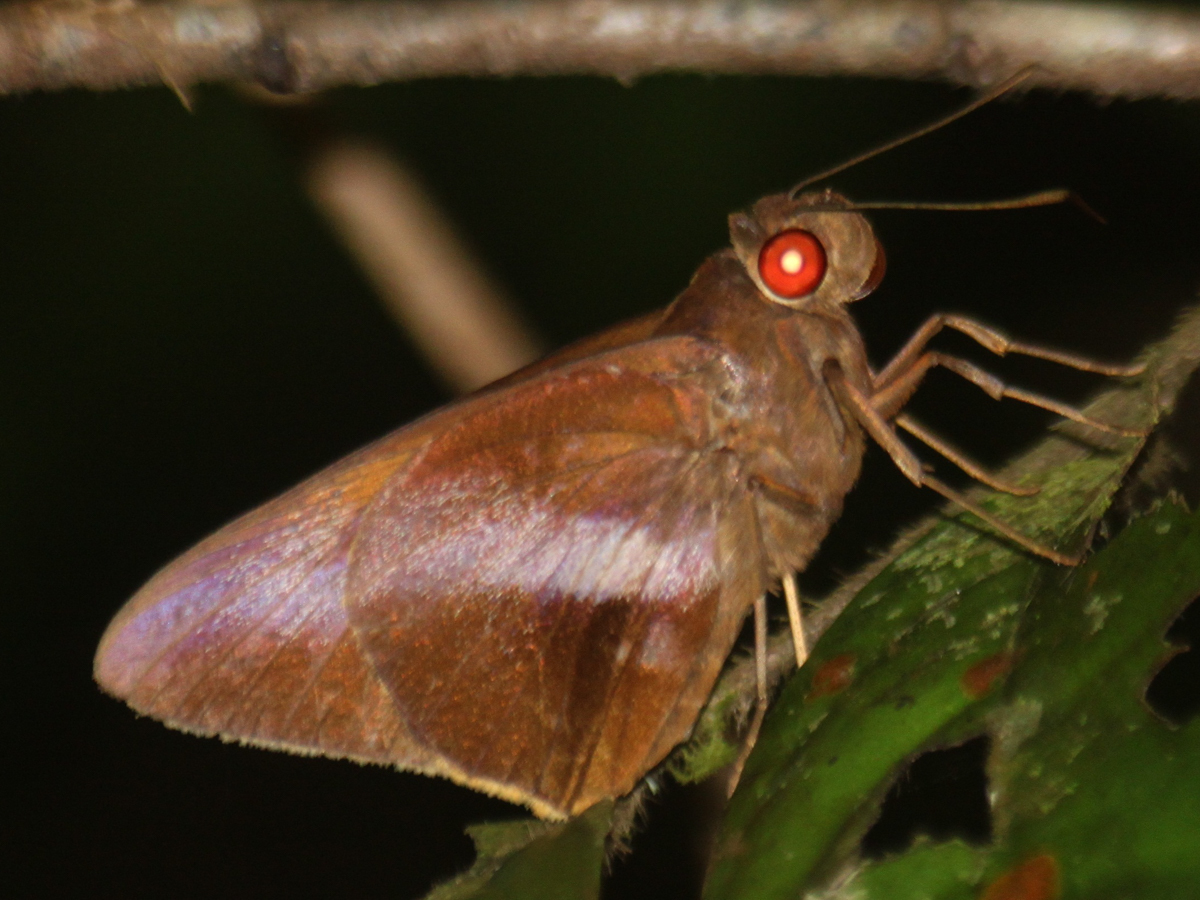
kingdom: Animalia
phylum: Arthropoda
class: Insecta
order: Lepidoptera
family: Hesperiidae
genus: Gangara
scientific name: Gangara lebadea
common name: Banded redeye
